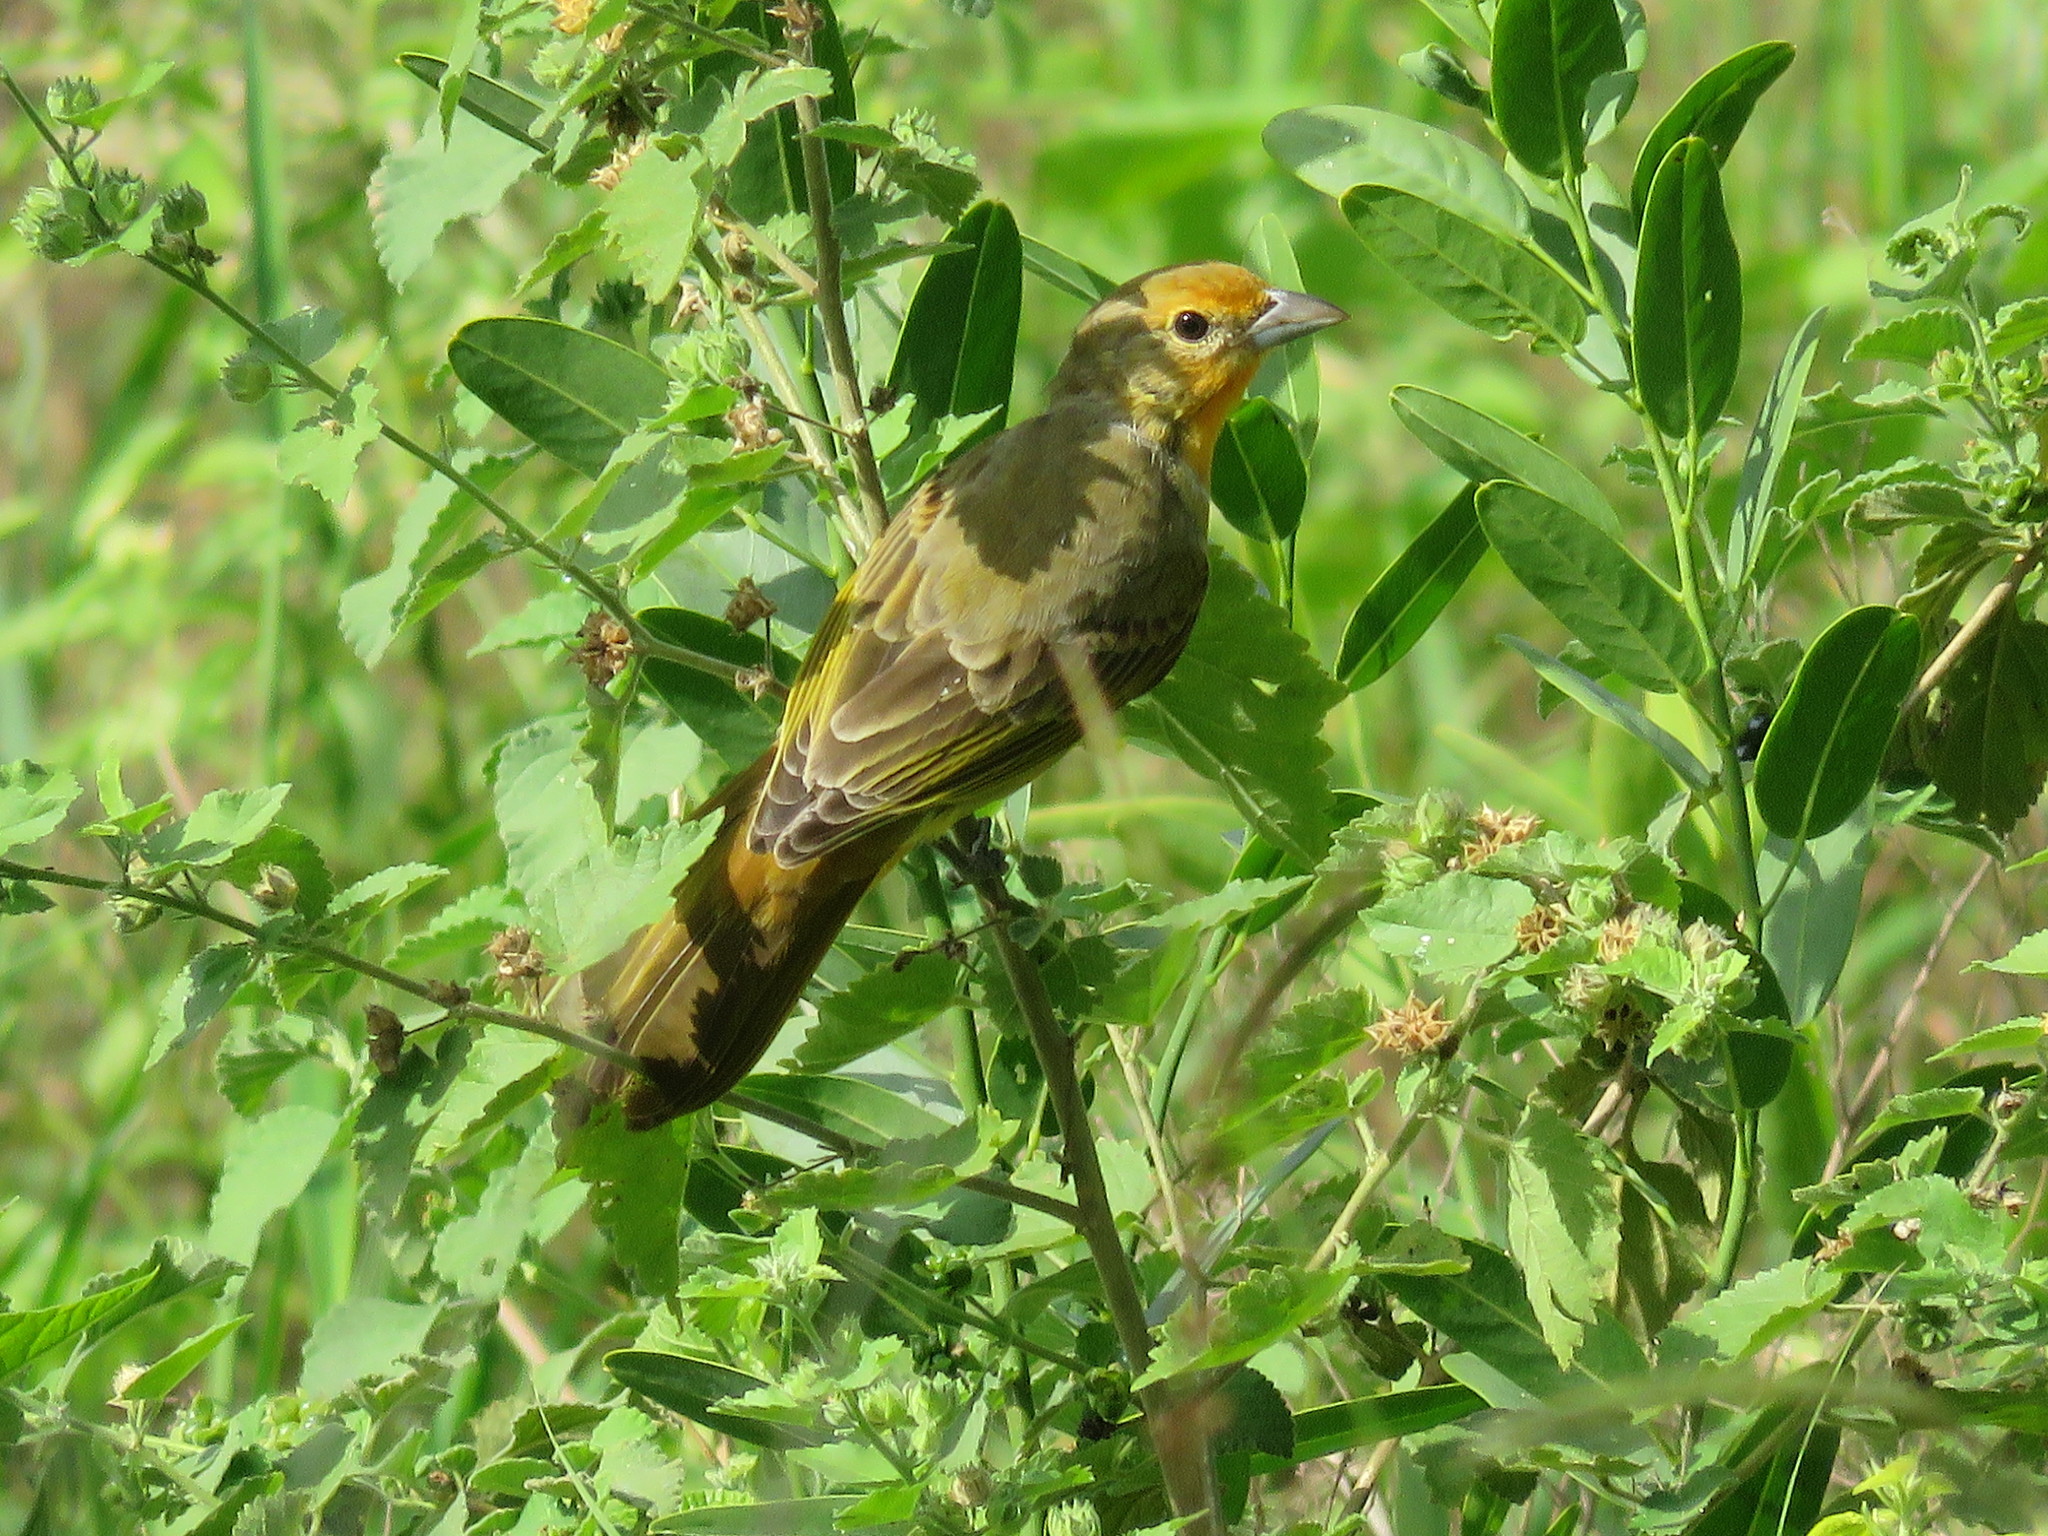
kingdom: Animalia
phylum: Chordata
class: Aves
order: Passeriformes
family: Cardinalidae
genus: Piranga
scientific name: Piranga flava
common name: Red tanager
